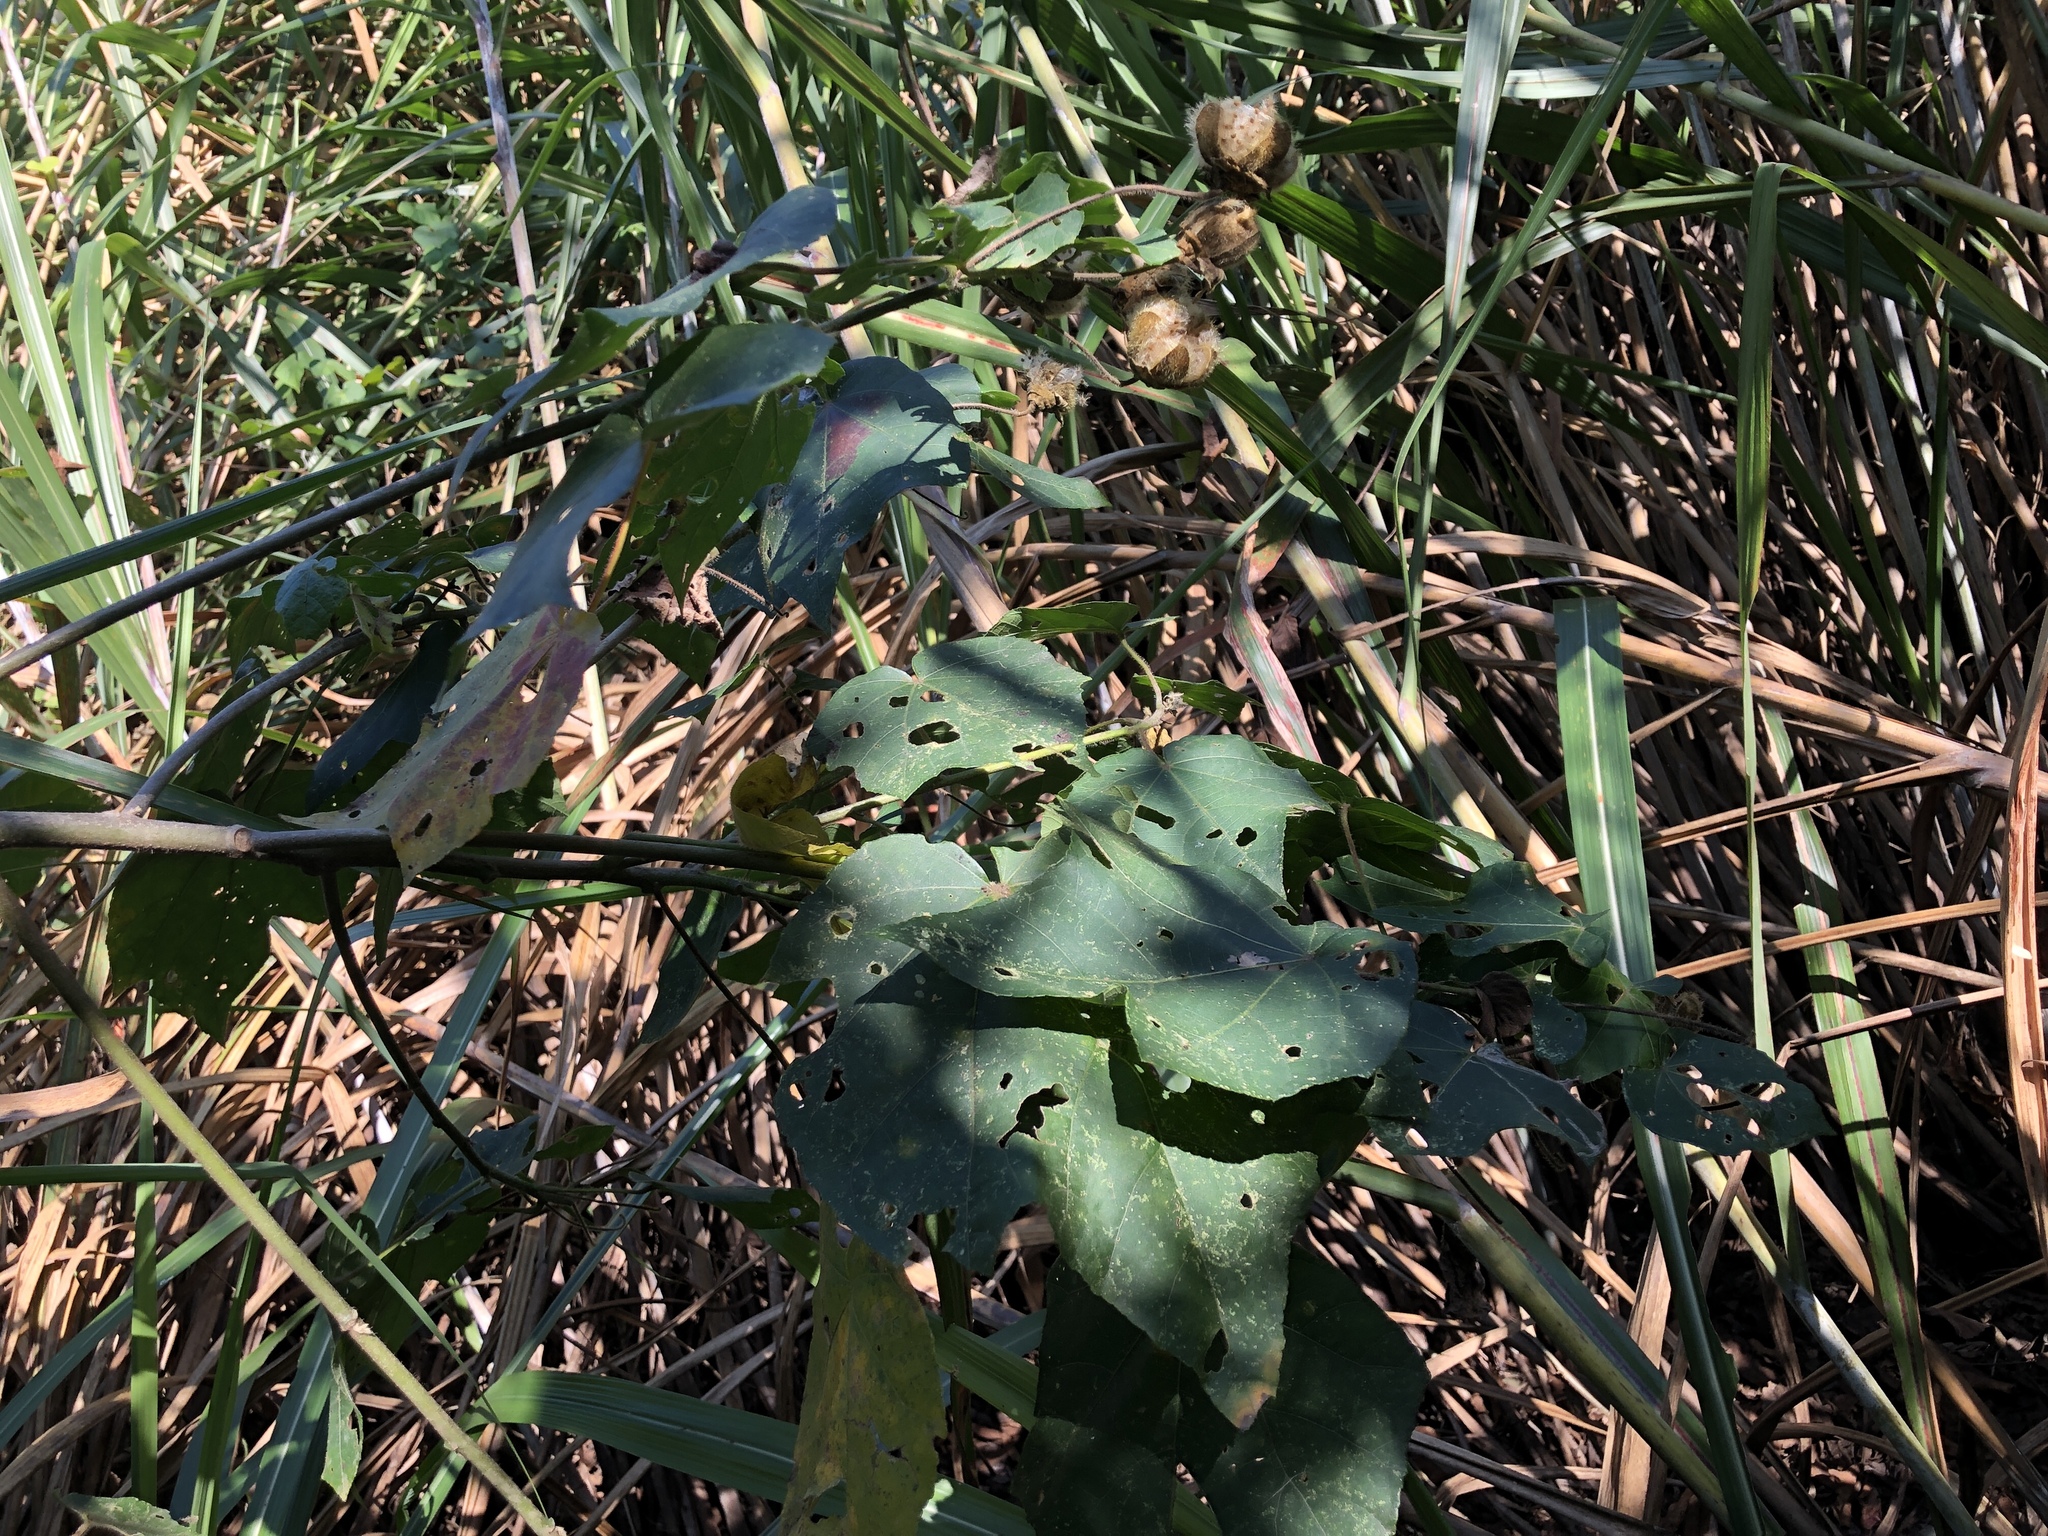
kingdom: Plantae
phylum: Tracheophyta
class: Magnoliopsida
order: Malvales
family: Malvaceae
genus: Hibiscus
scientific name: Hibiscus taiwanensis
